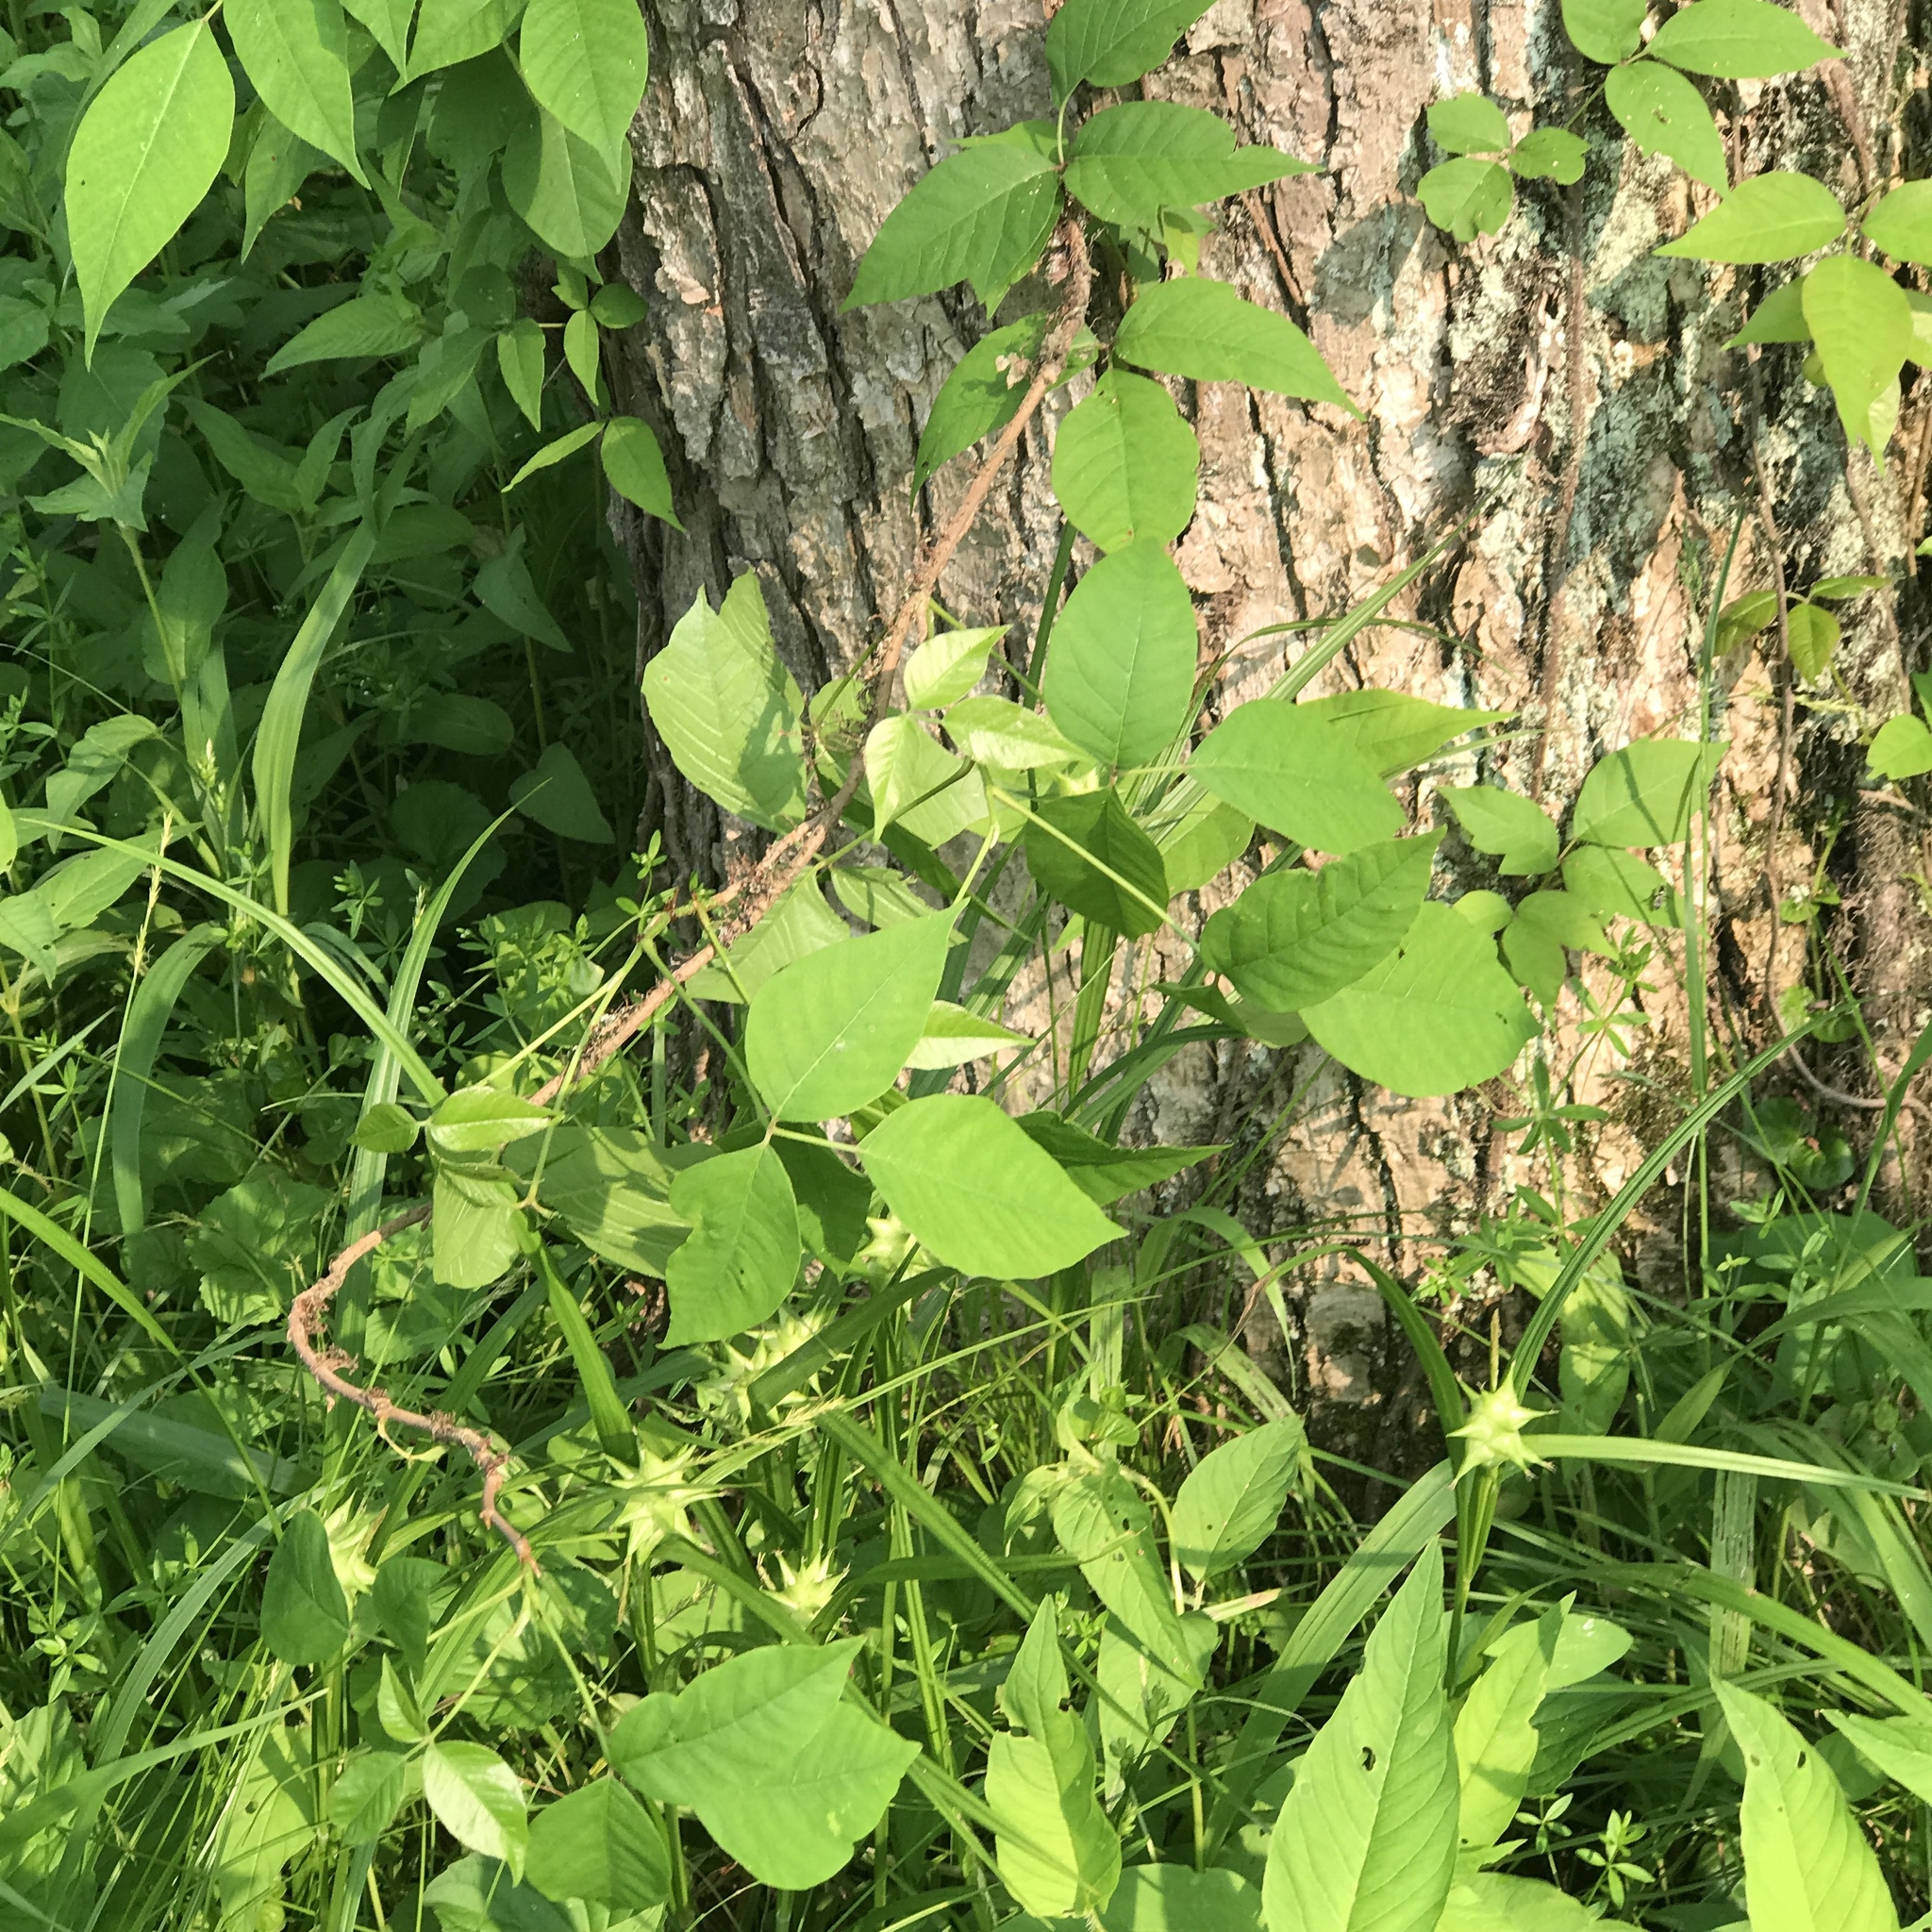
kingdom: Plantae
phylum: Tracheophyta
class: Magnoliopsida
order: Sapindales
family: Anacardiaceae
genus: Toxicodendron
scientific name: Toxicodendron radicans
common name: Poison ivy
